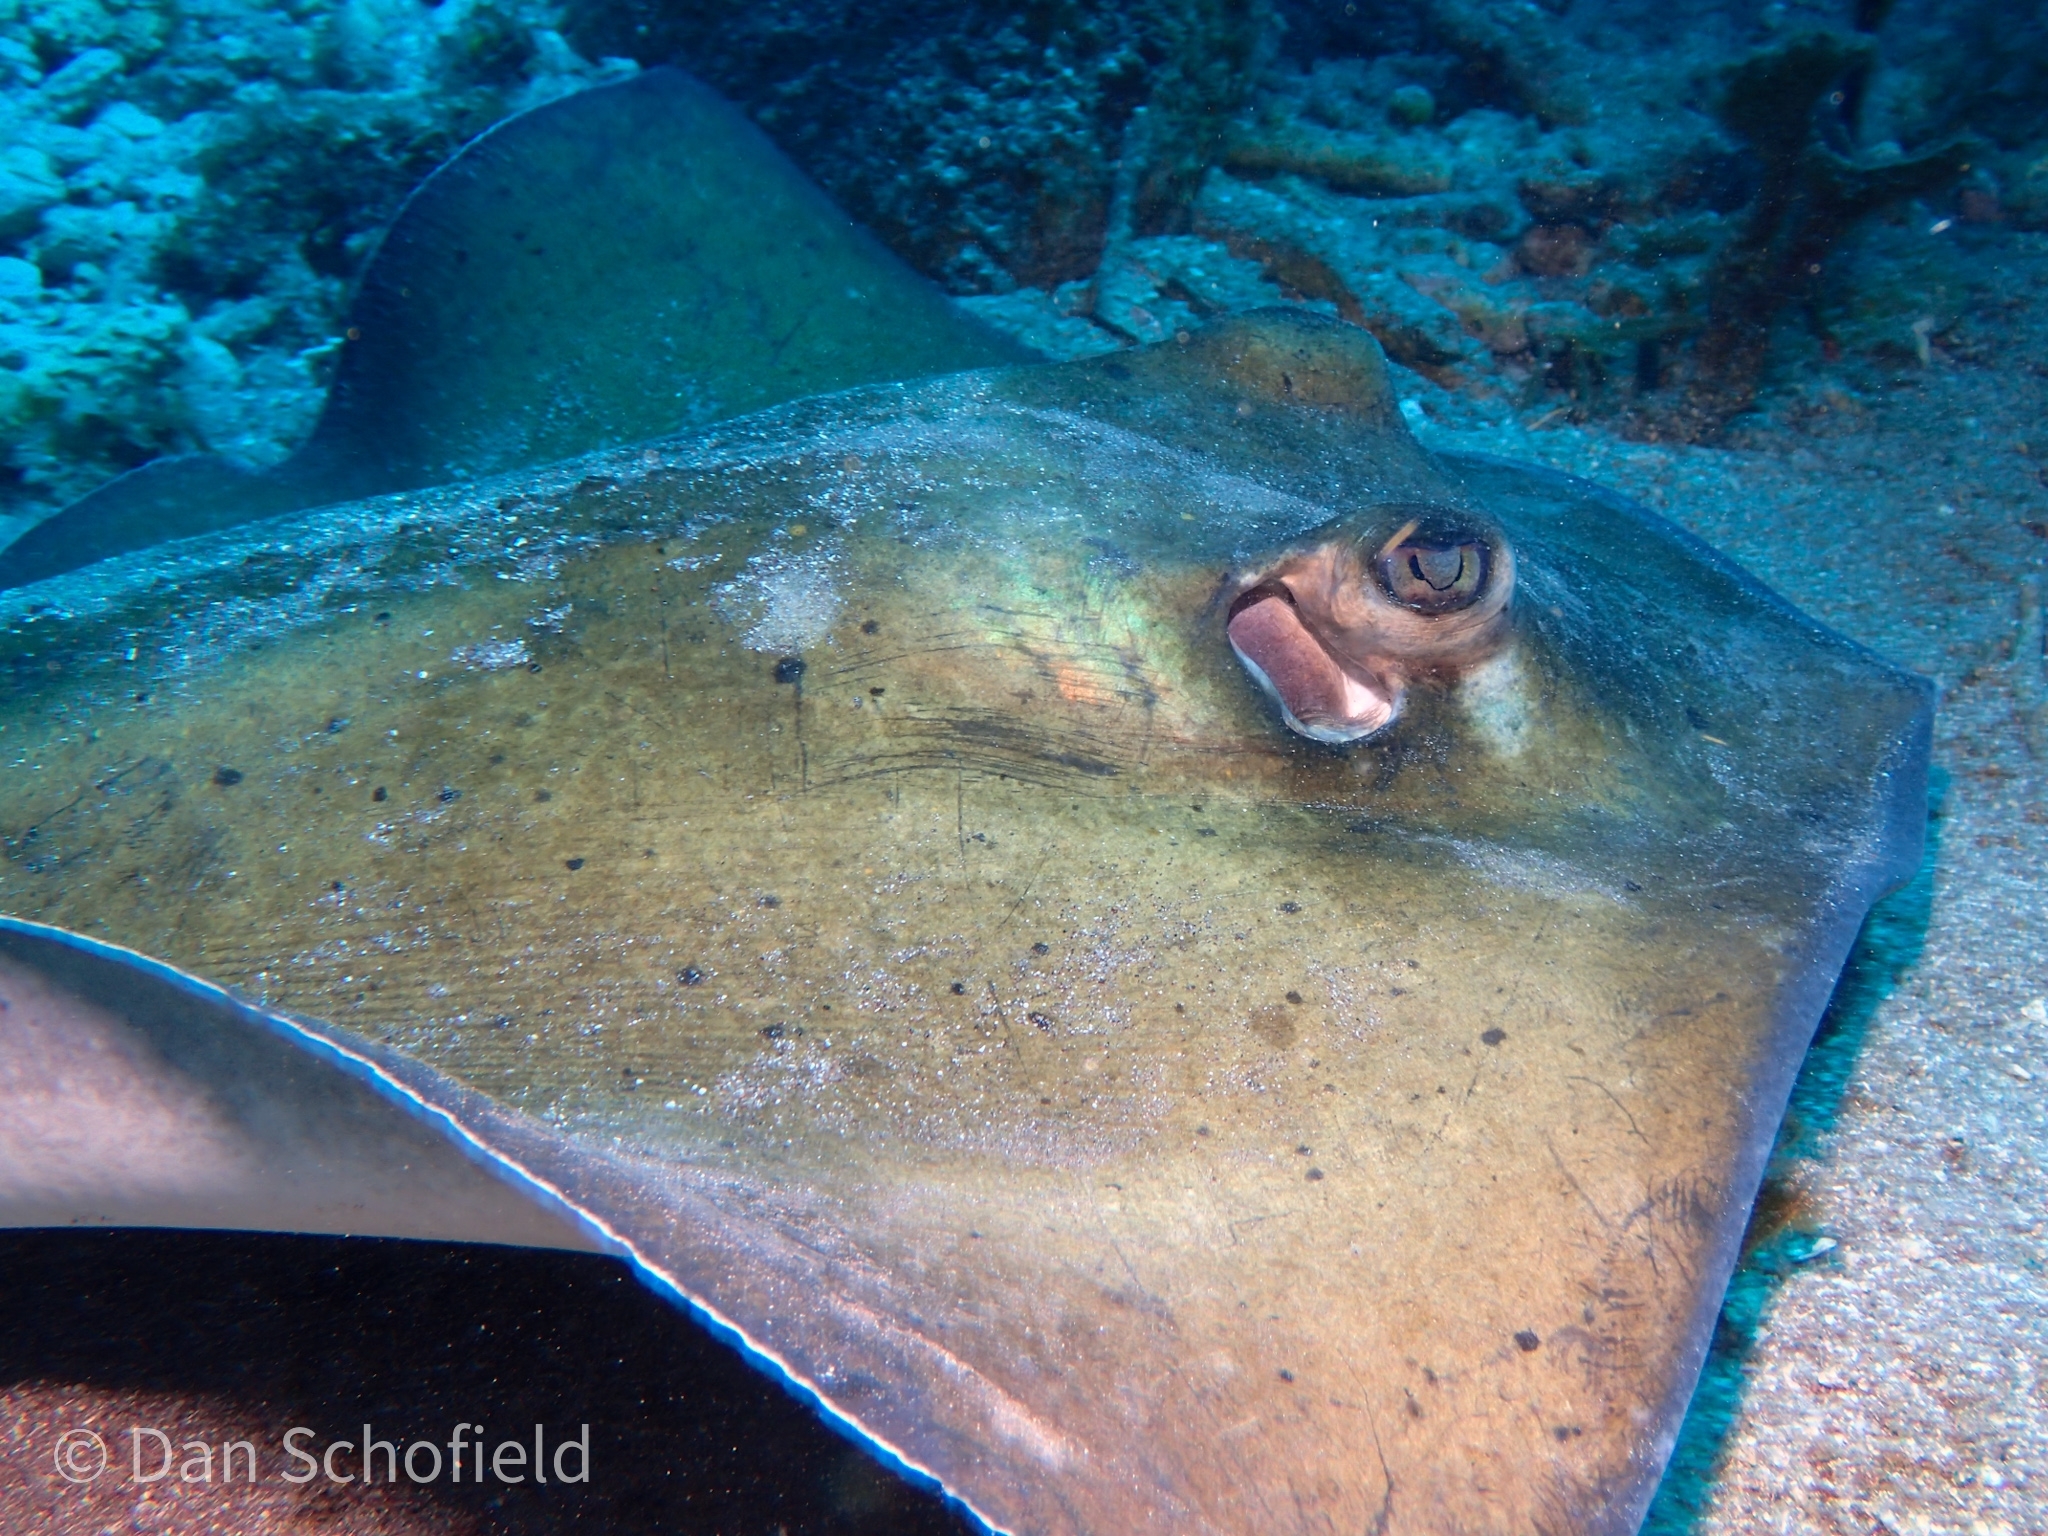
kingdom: Animalia
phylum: Chordata
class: Elasmobranchii
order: Myliobatiformes
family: Dasyatidae
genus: Hypanus
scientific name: Hypanus americanus
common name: Southern stingray
